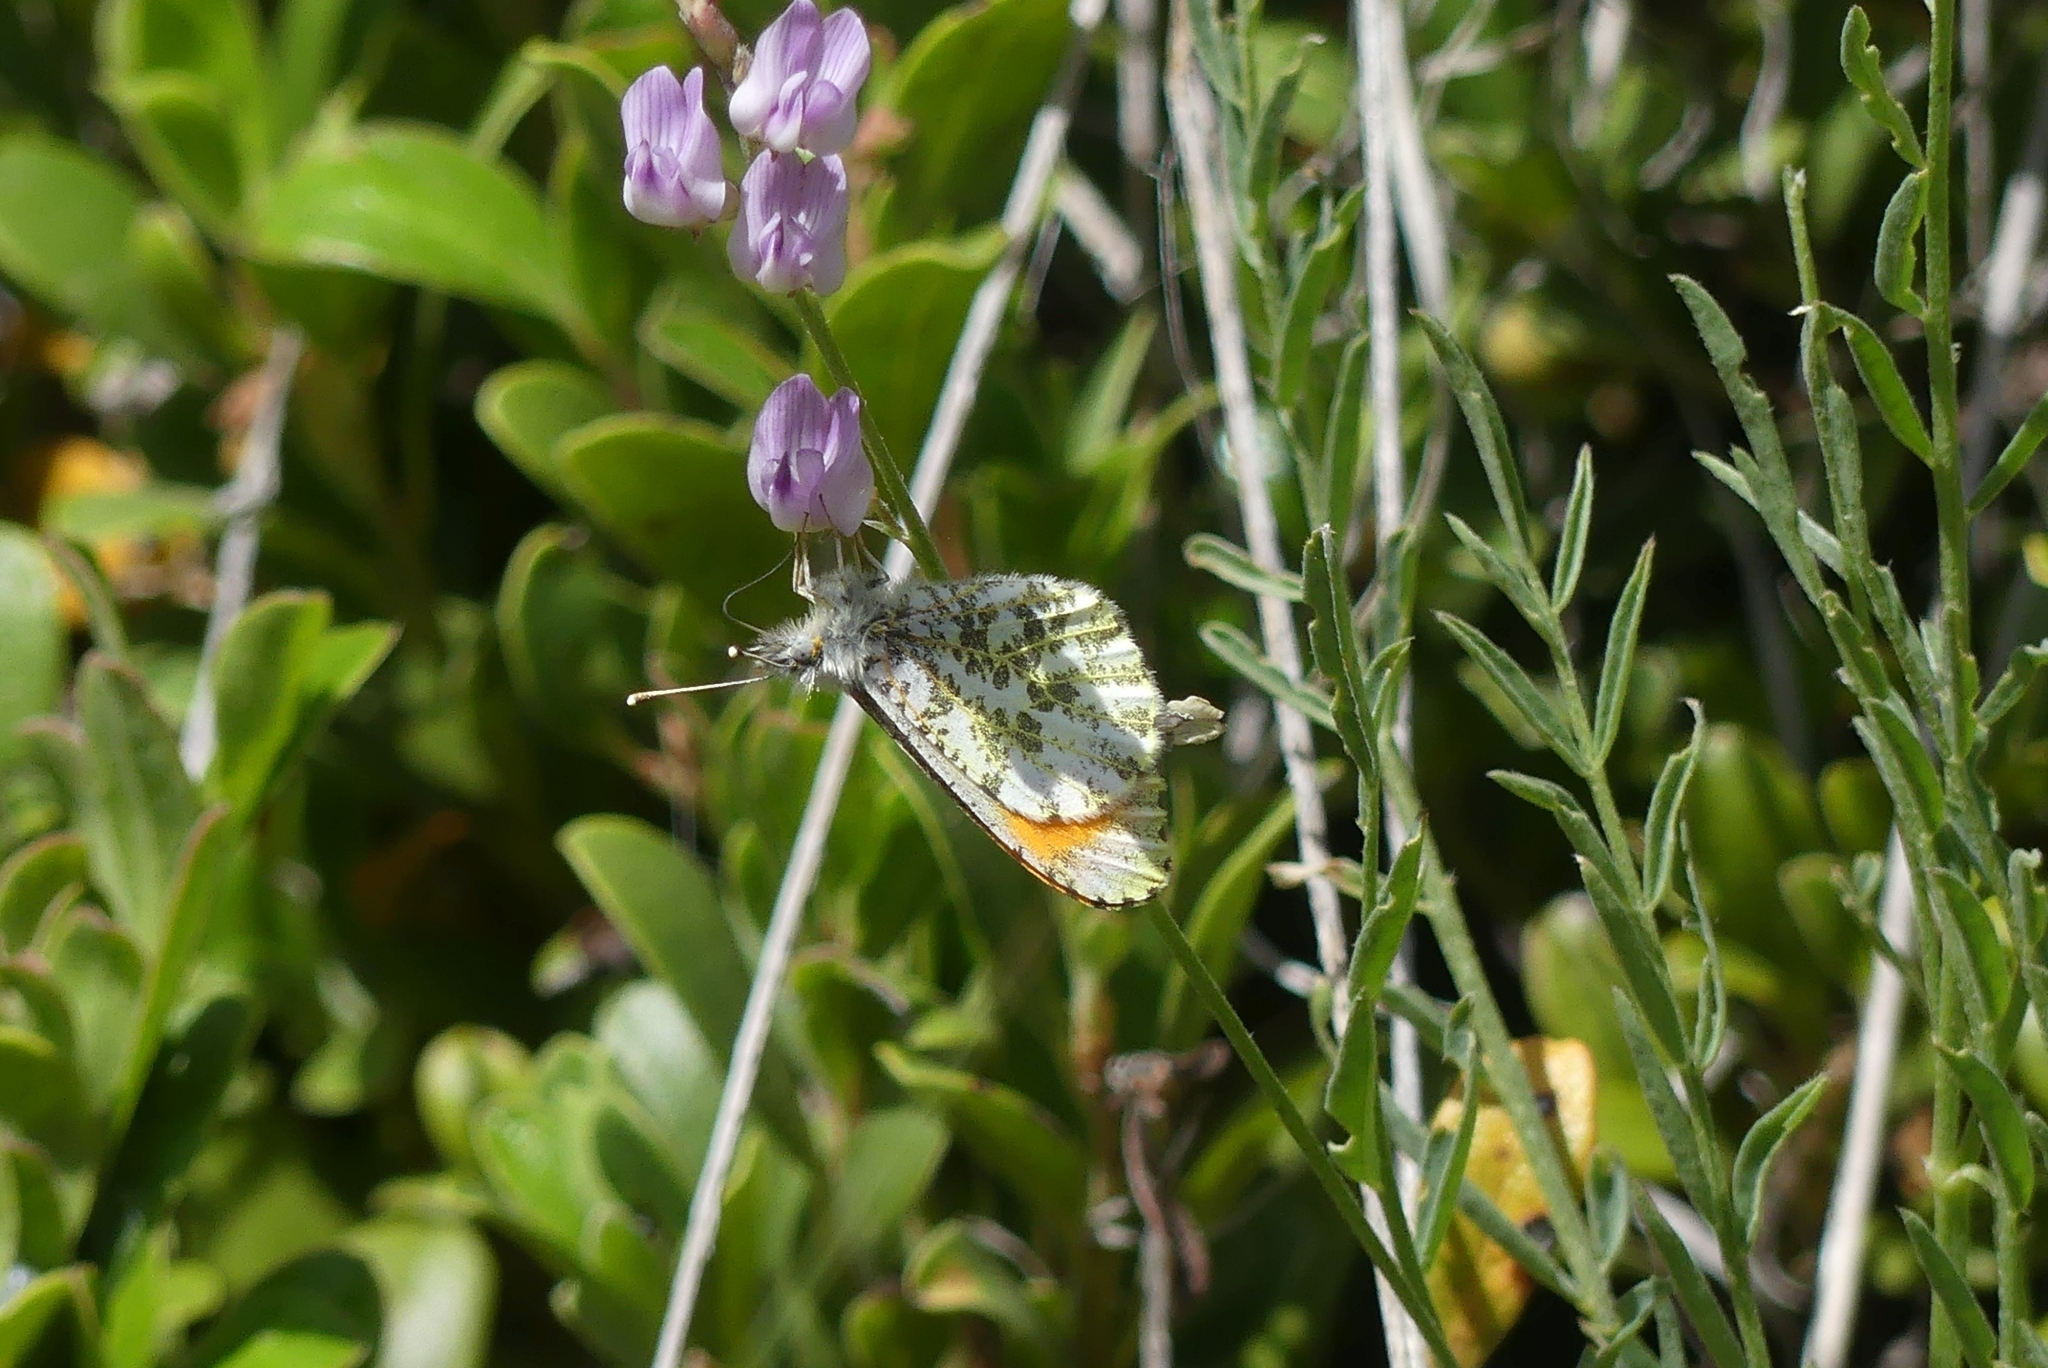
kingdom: Animalia
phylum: Arthropoda
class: Insecta
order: Lepidoptera
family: Pieridae
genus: Anthocharis
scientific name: Anthocharis julia
